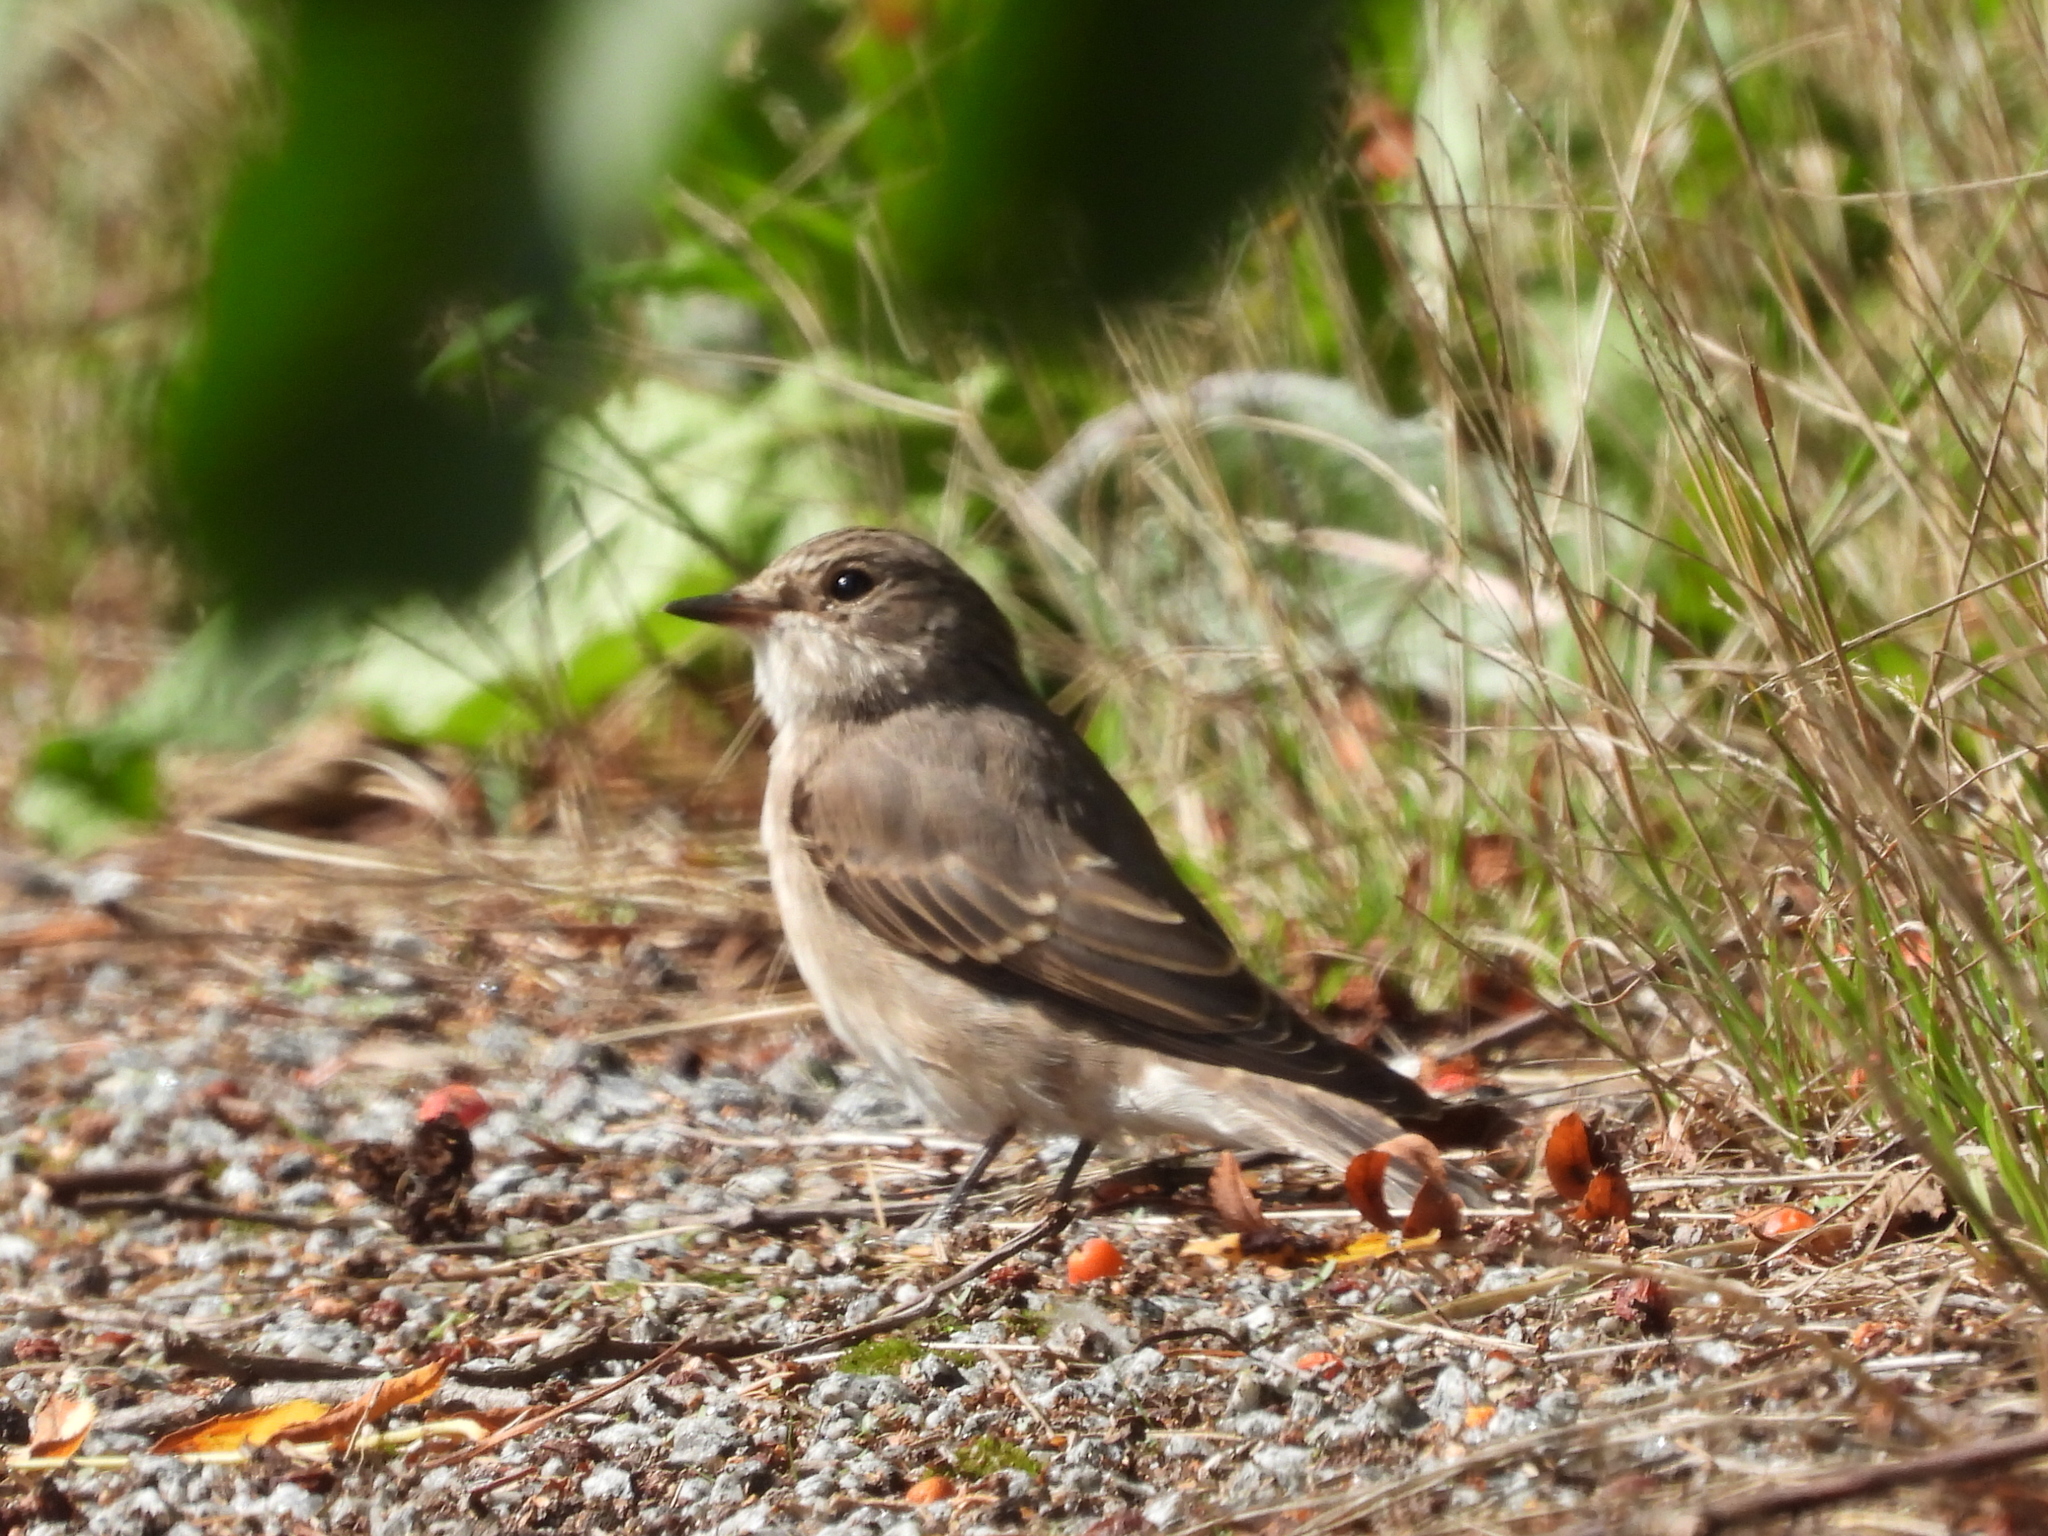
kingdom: Animalia
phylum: Chordata
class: Aves
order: Passeriformes
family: Muscicapidae
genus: Muscicapa
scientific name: Muscicapa striata
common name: Spotted flycatcher
